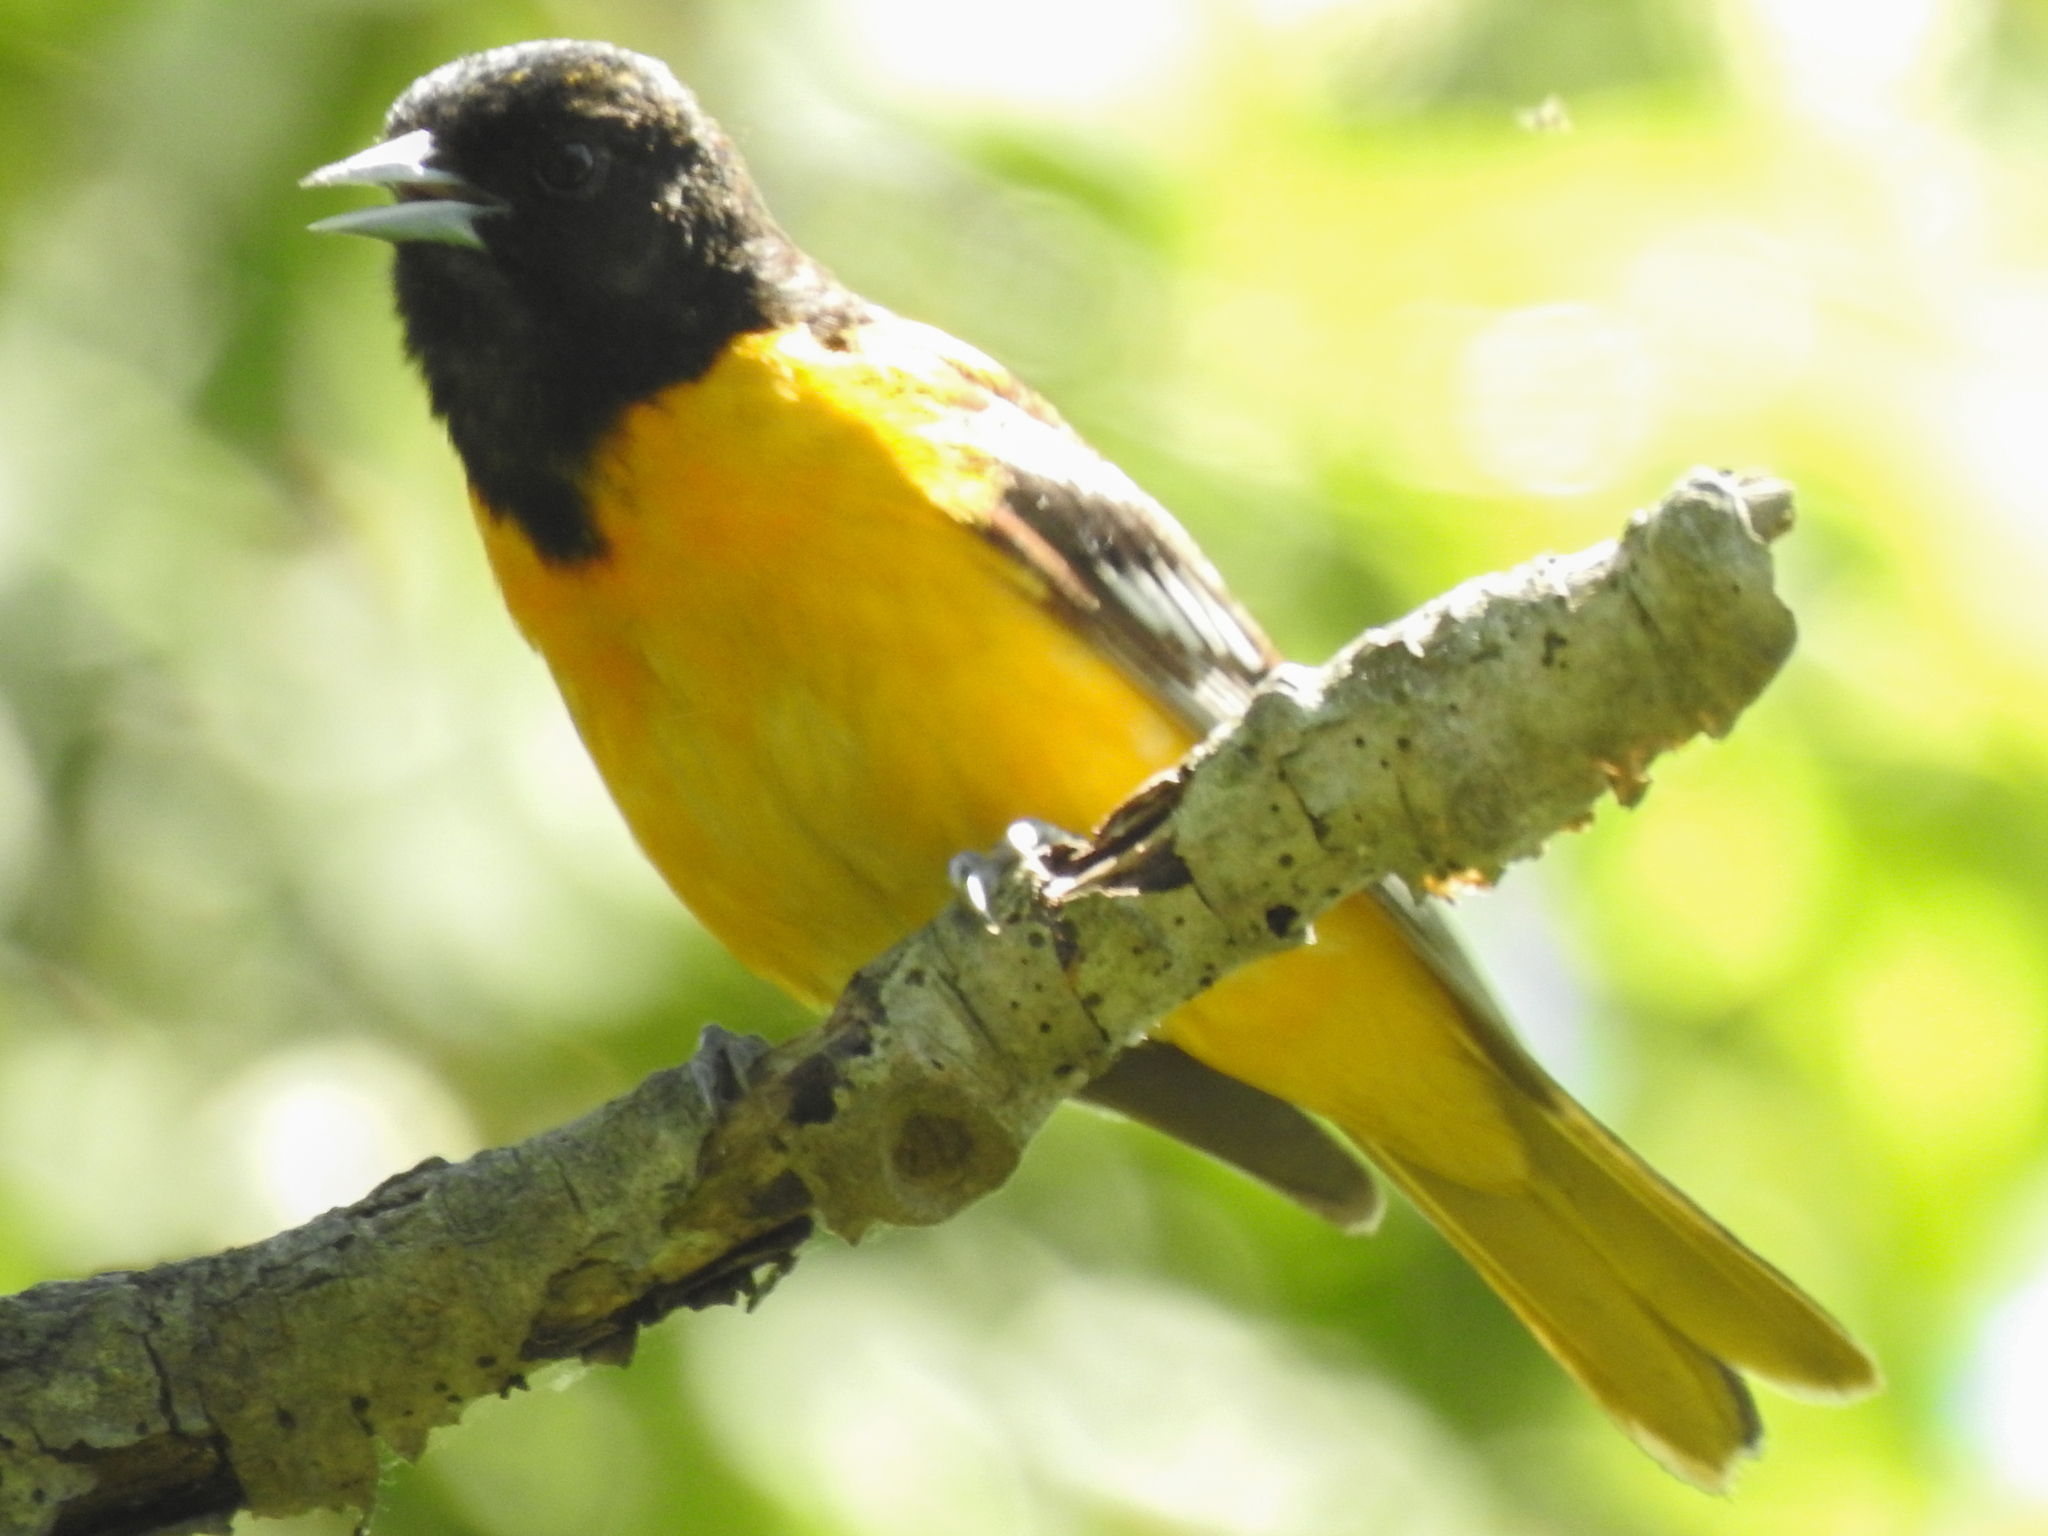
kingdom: Animalia
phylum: Chordata
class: Aves
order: Passeriformes
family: Icteridae
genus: Icterus
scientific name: Icterus galbula
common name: Baltimore oriole
